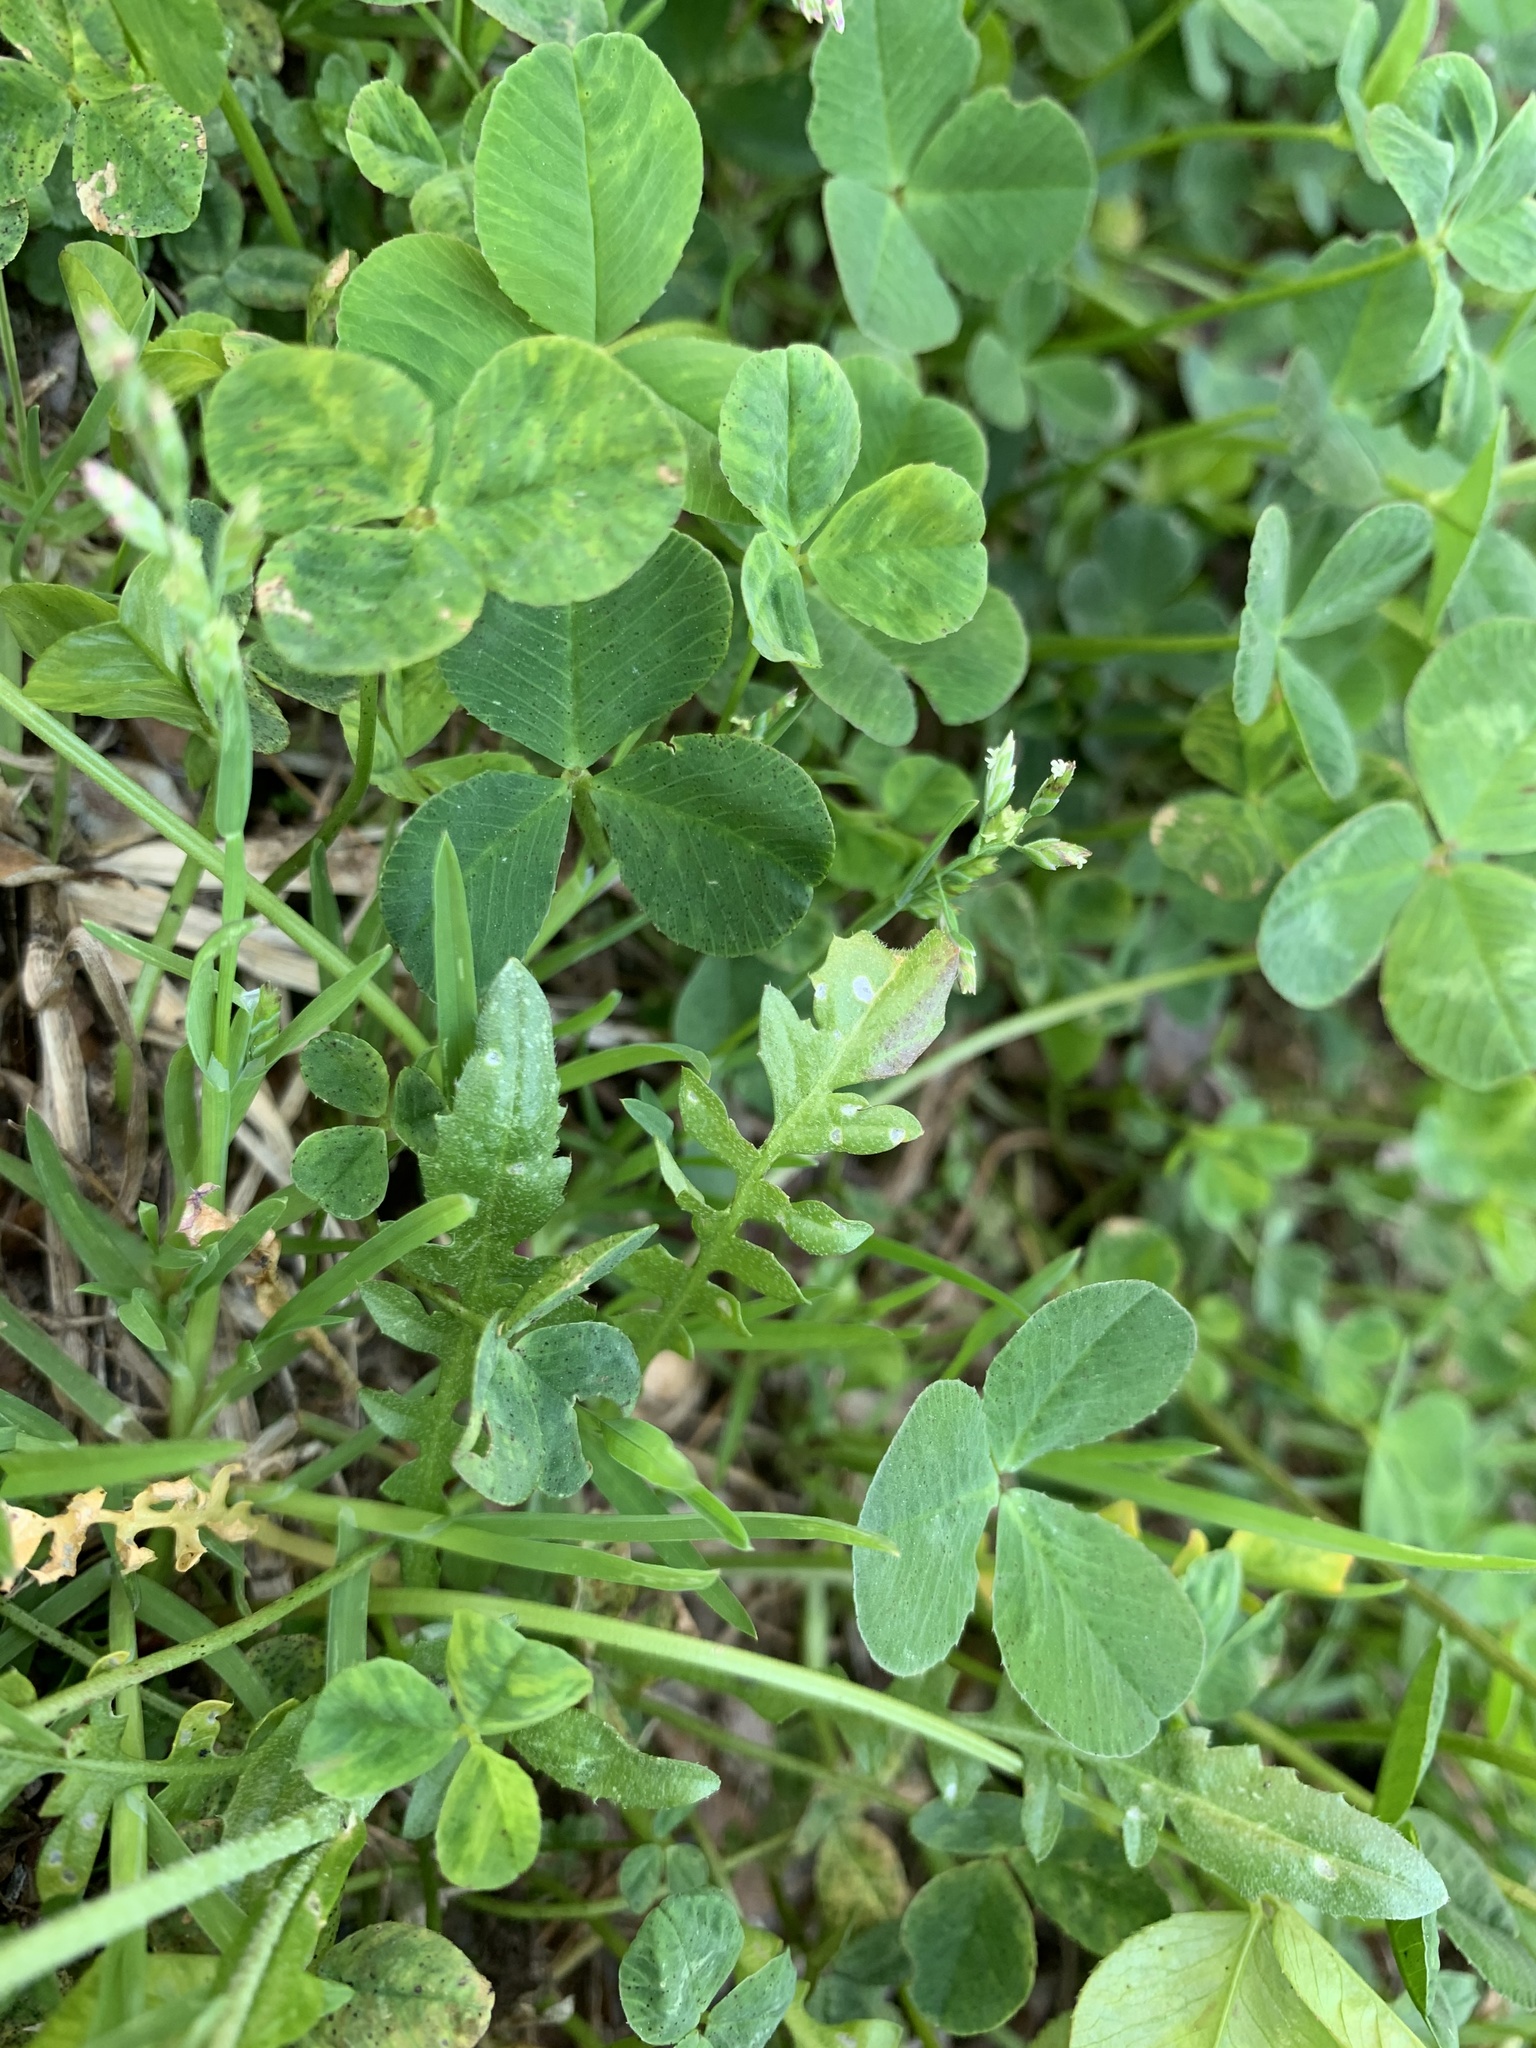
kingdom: Plantae
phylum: Tracheophyta
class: Magnoliopsida
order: Brassicales
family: Brassicaceae
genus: Capsella
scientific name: Capsella bursa-pastoris
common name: Shepherd's purse
